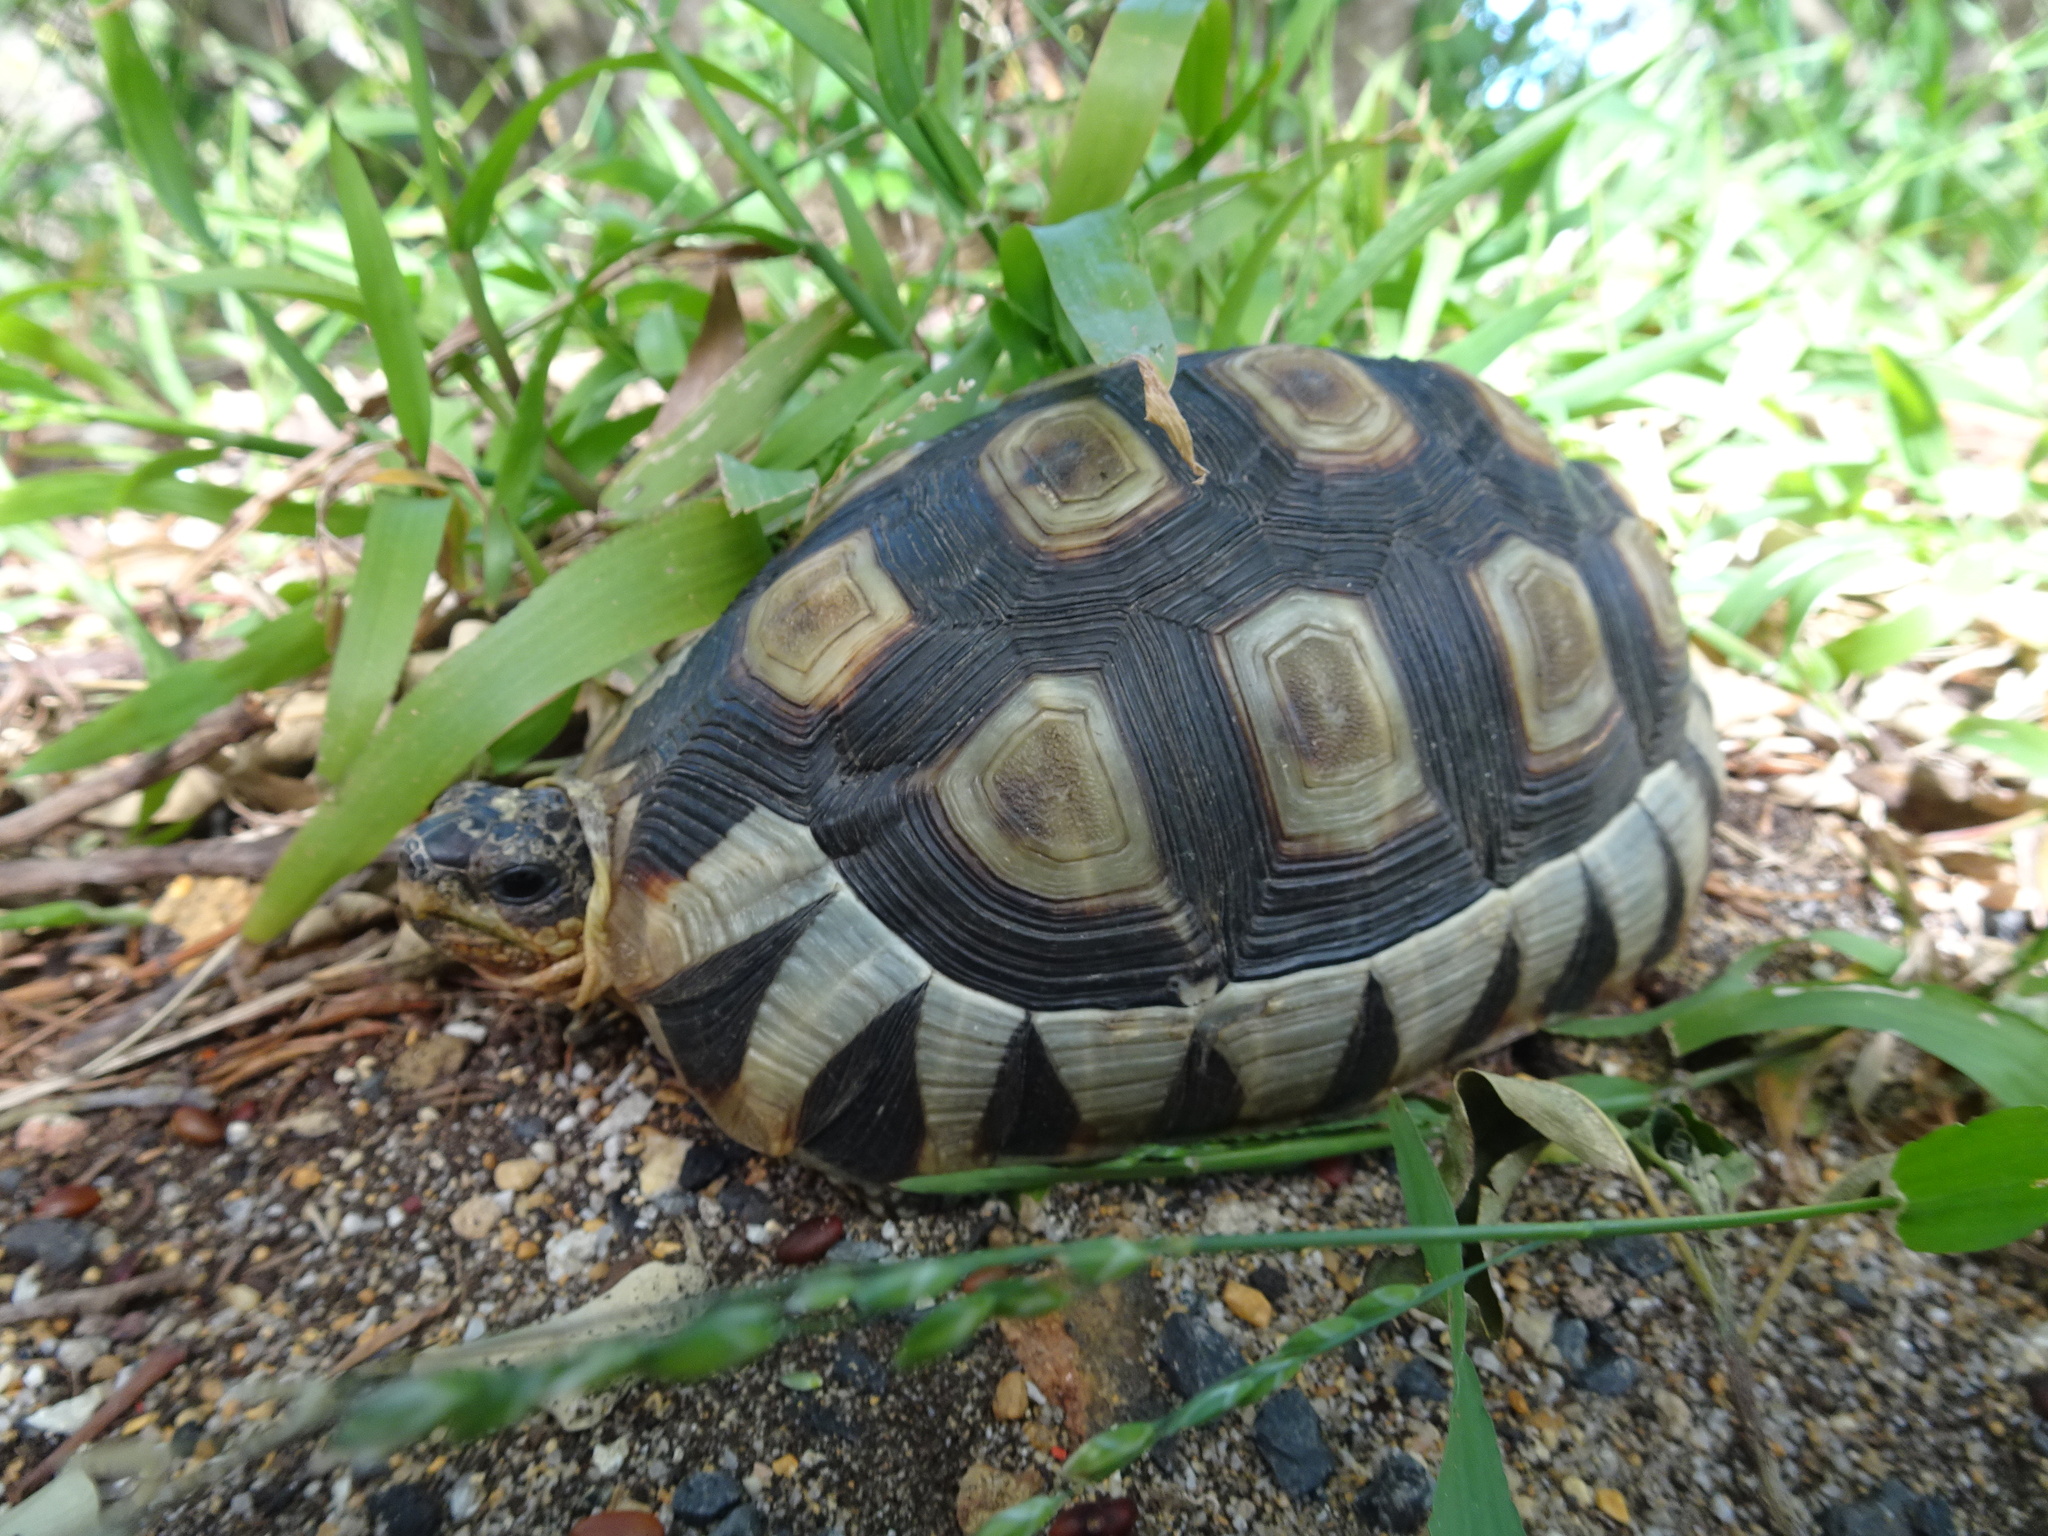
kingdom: Animalia
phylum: Chordata
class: Testudines
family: Testudinidae
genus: Chersina
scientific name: Chersina angulata
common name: South african bowsprit tortoise
